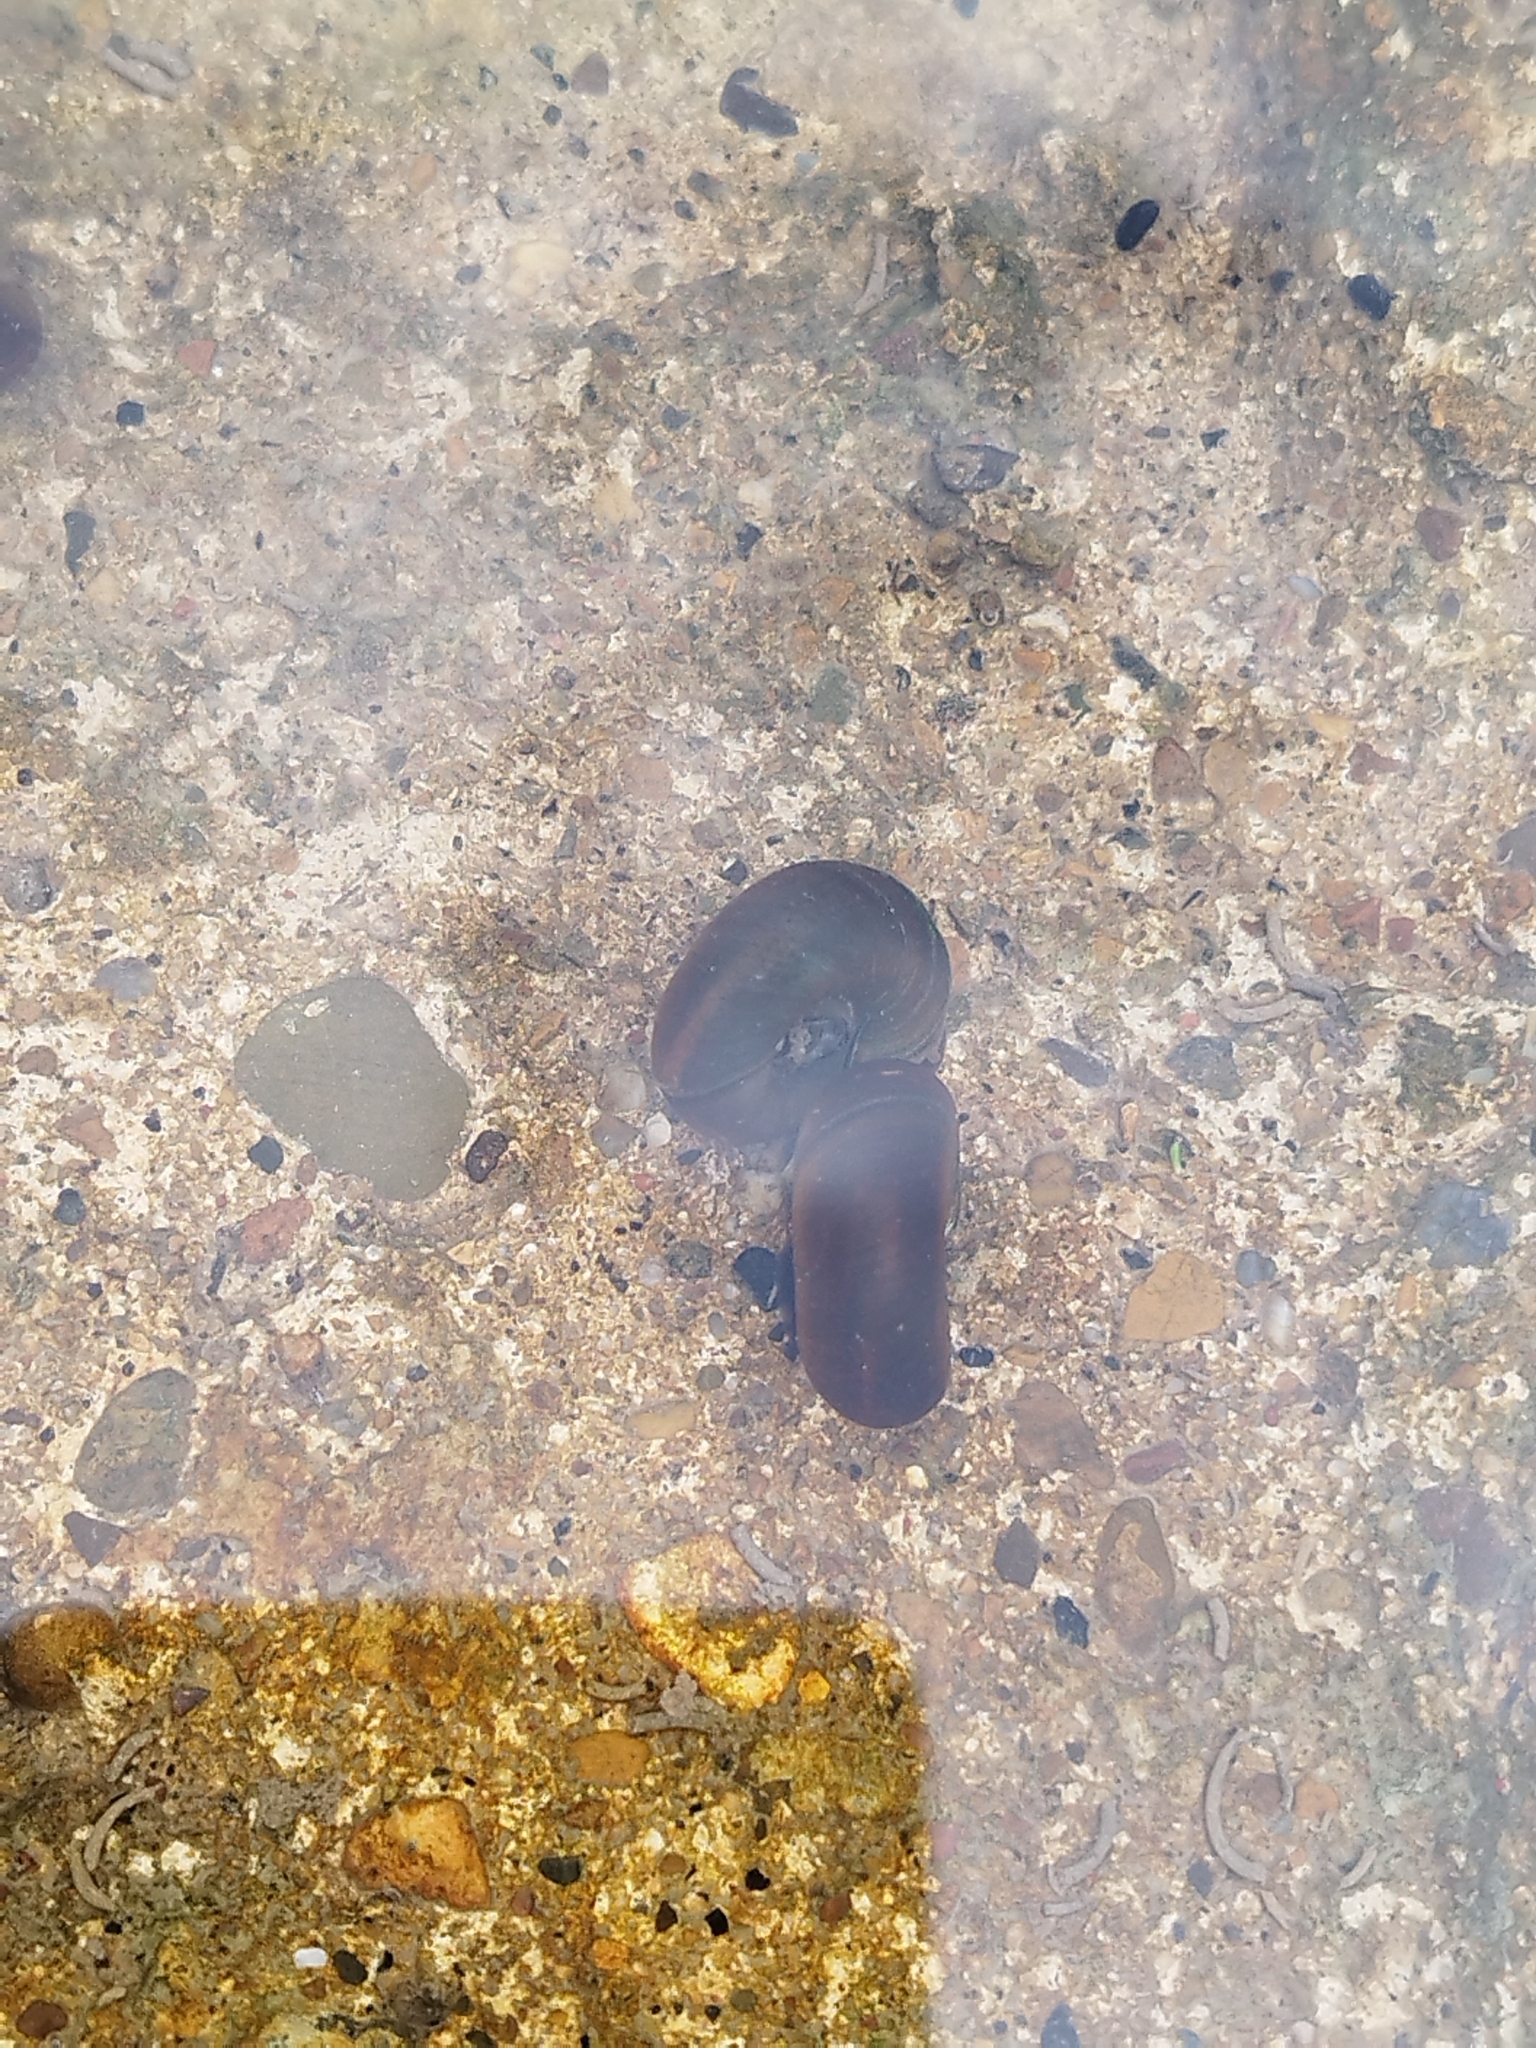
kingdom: Animalia
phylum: Mollusca
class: Gastropoda
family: Planorbidae
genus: Planorbarius
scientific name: Planorbarius corneus
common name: Great ramshorn
